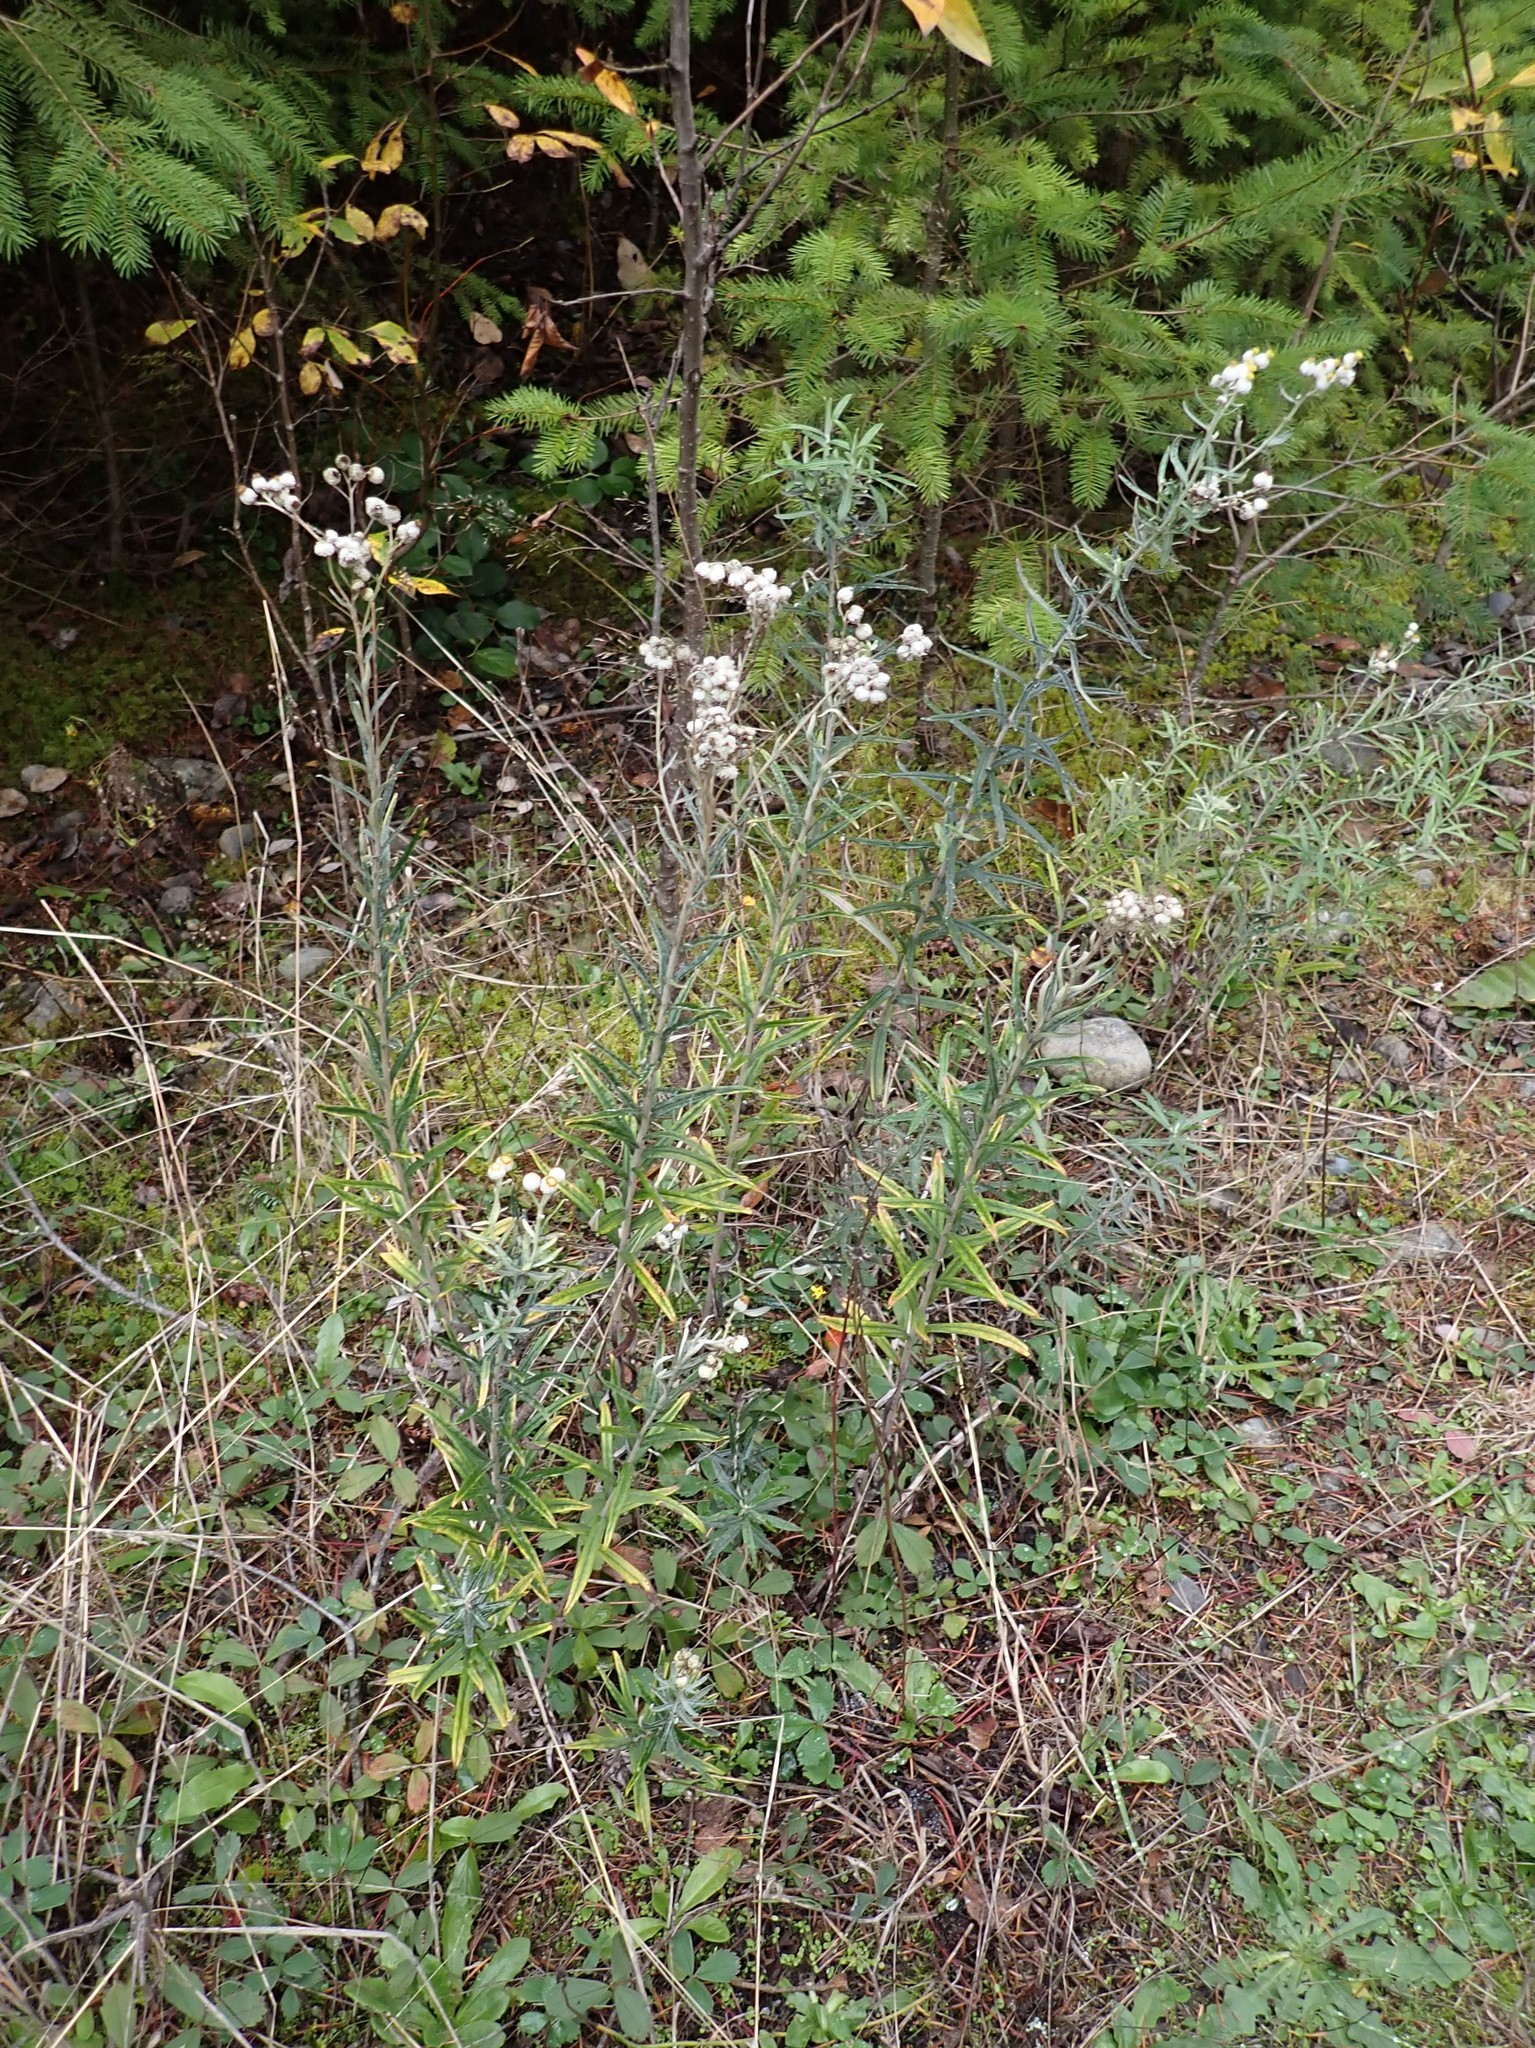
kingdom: Plantae
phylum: Tracheophyta
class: Magnoliopsida
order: Asterales
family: Asteraceae
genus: Anaphalis
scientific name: Anaphalis margaritacea
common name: Pearly everlasting
